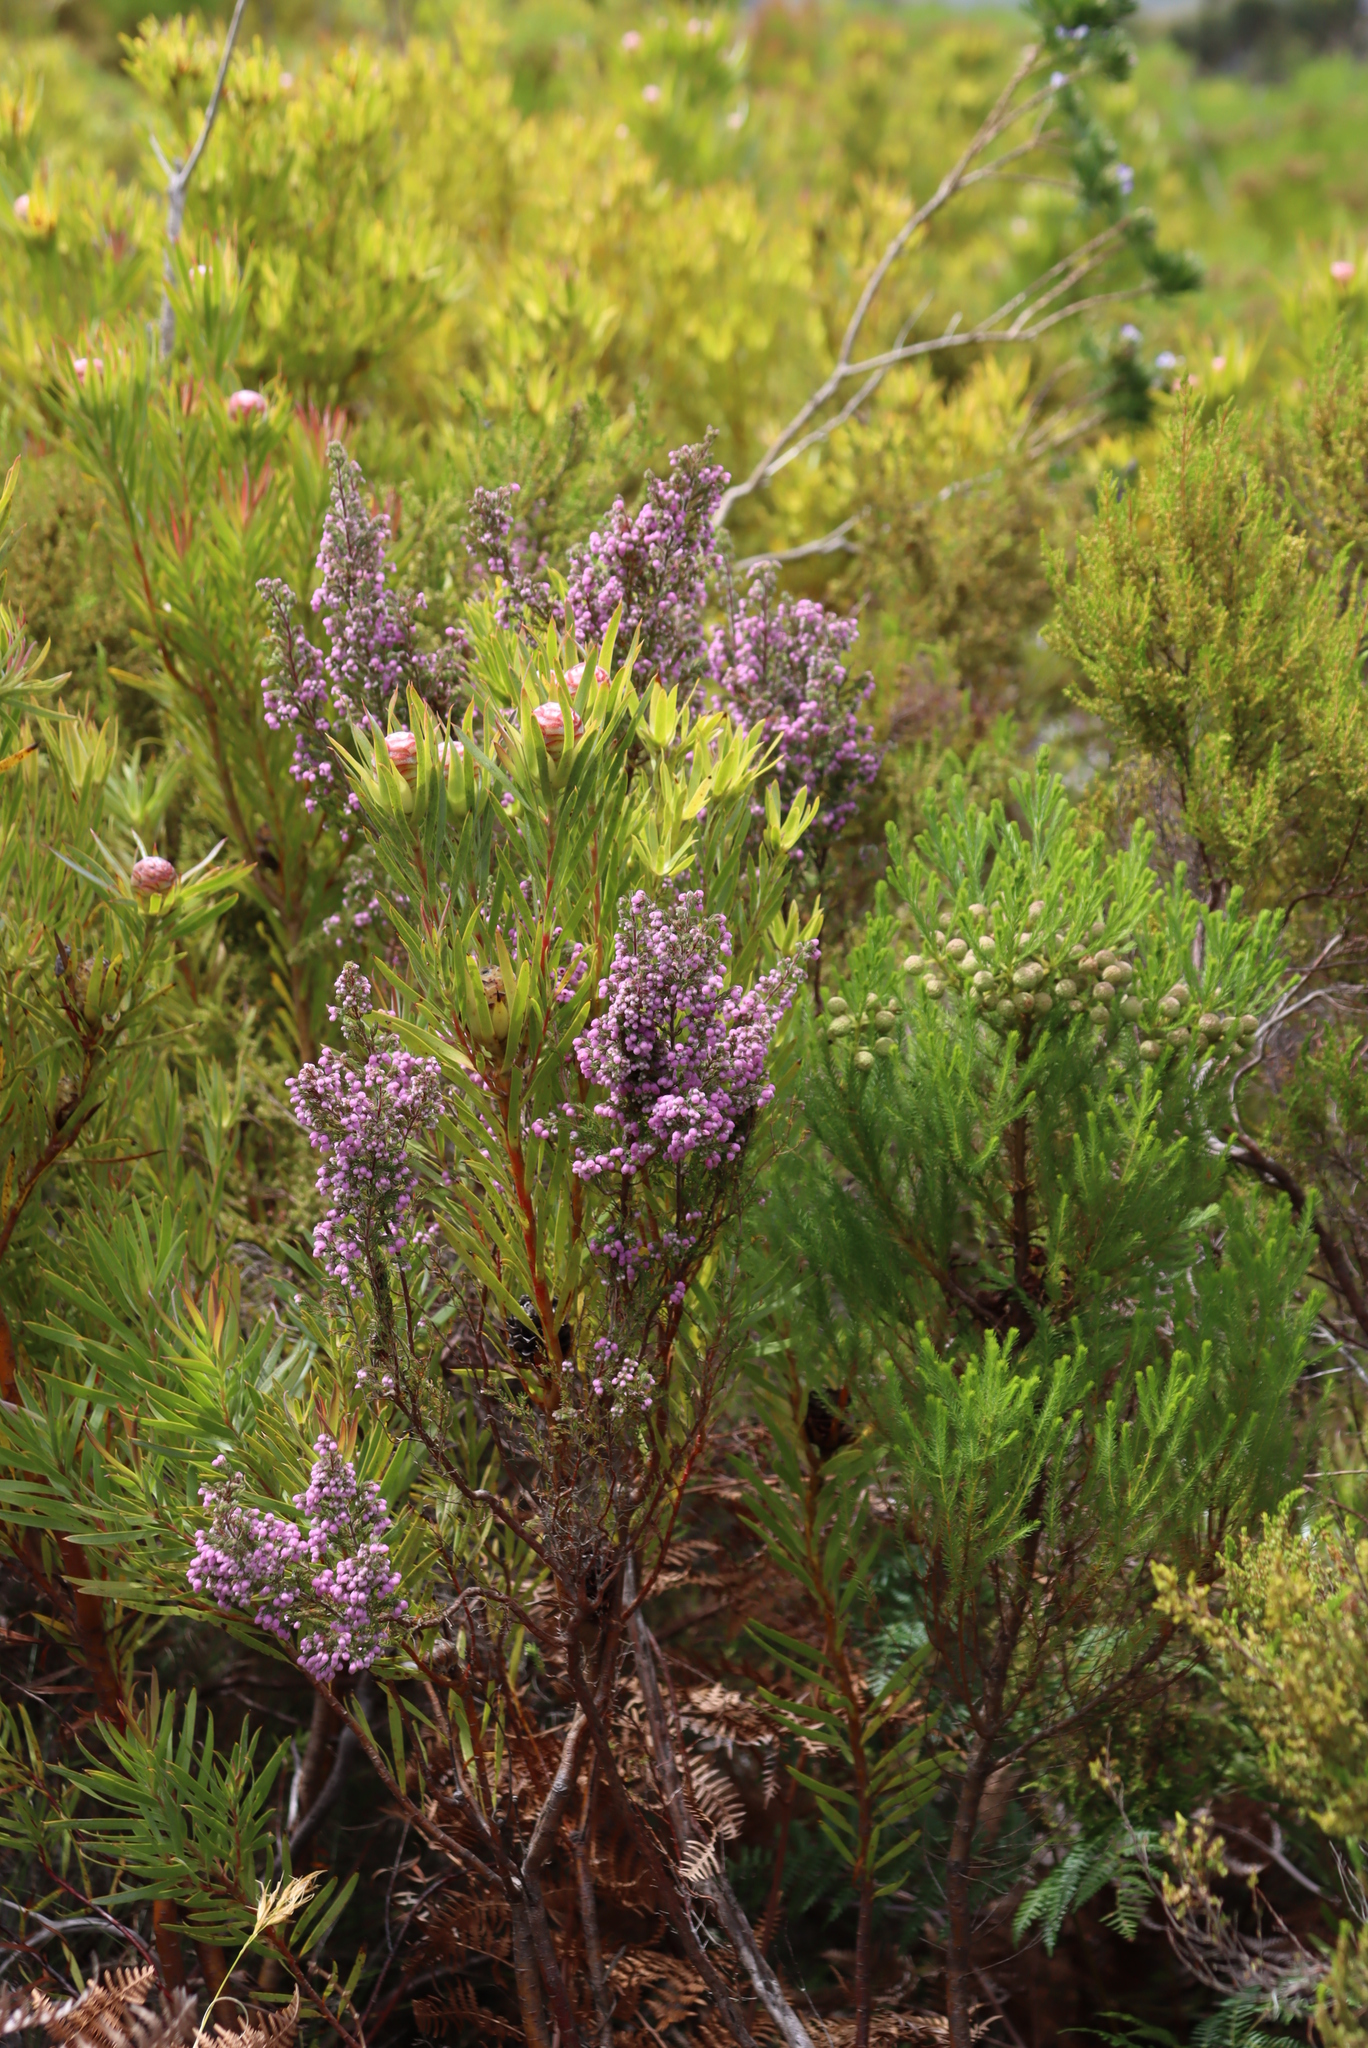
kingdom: Plantae
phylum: Tracheophyta
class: Magnoliopsida
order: Ericales
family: Ericaceae
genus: Erica
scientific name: Erica hirtiflora
